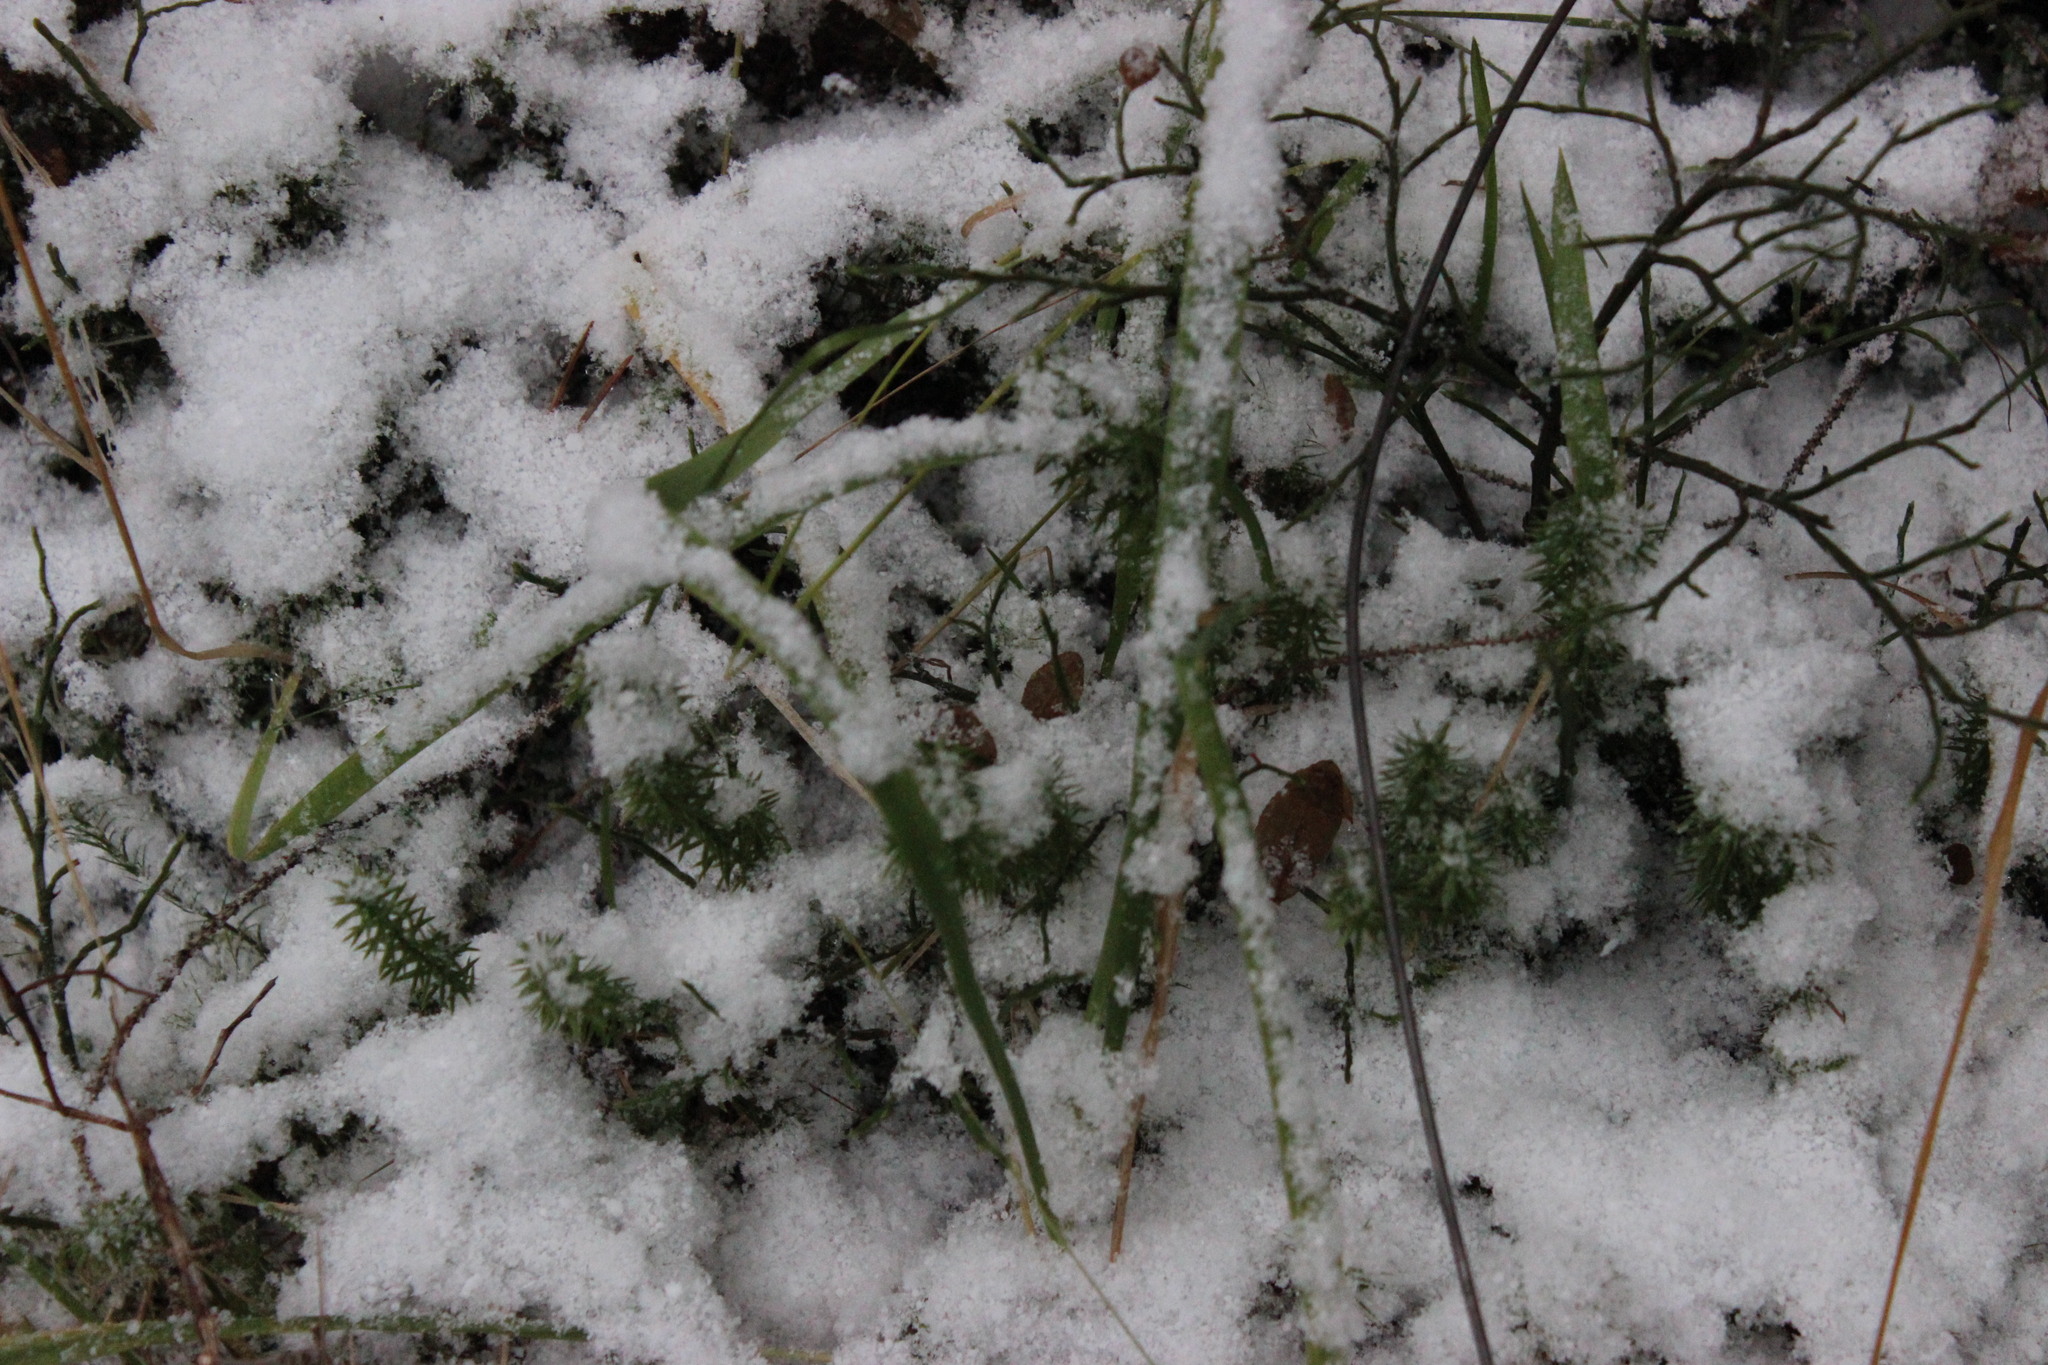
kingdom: Plantae
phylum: Tracheophyta
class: Liliopsida
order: Poales
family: Juncaceae
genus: Luzula
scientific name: Luzula pilosa
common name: Hairy wood-rush
